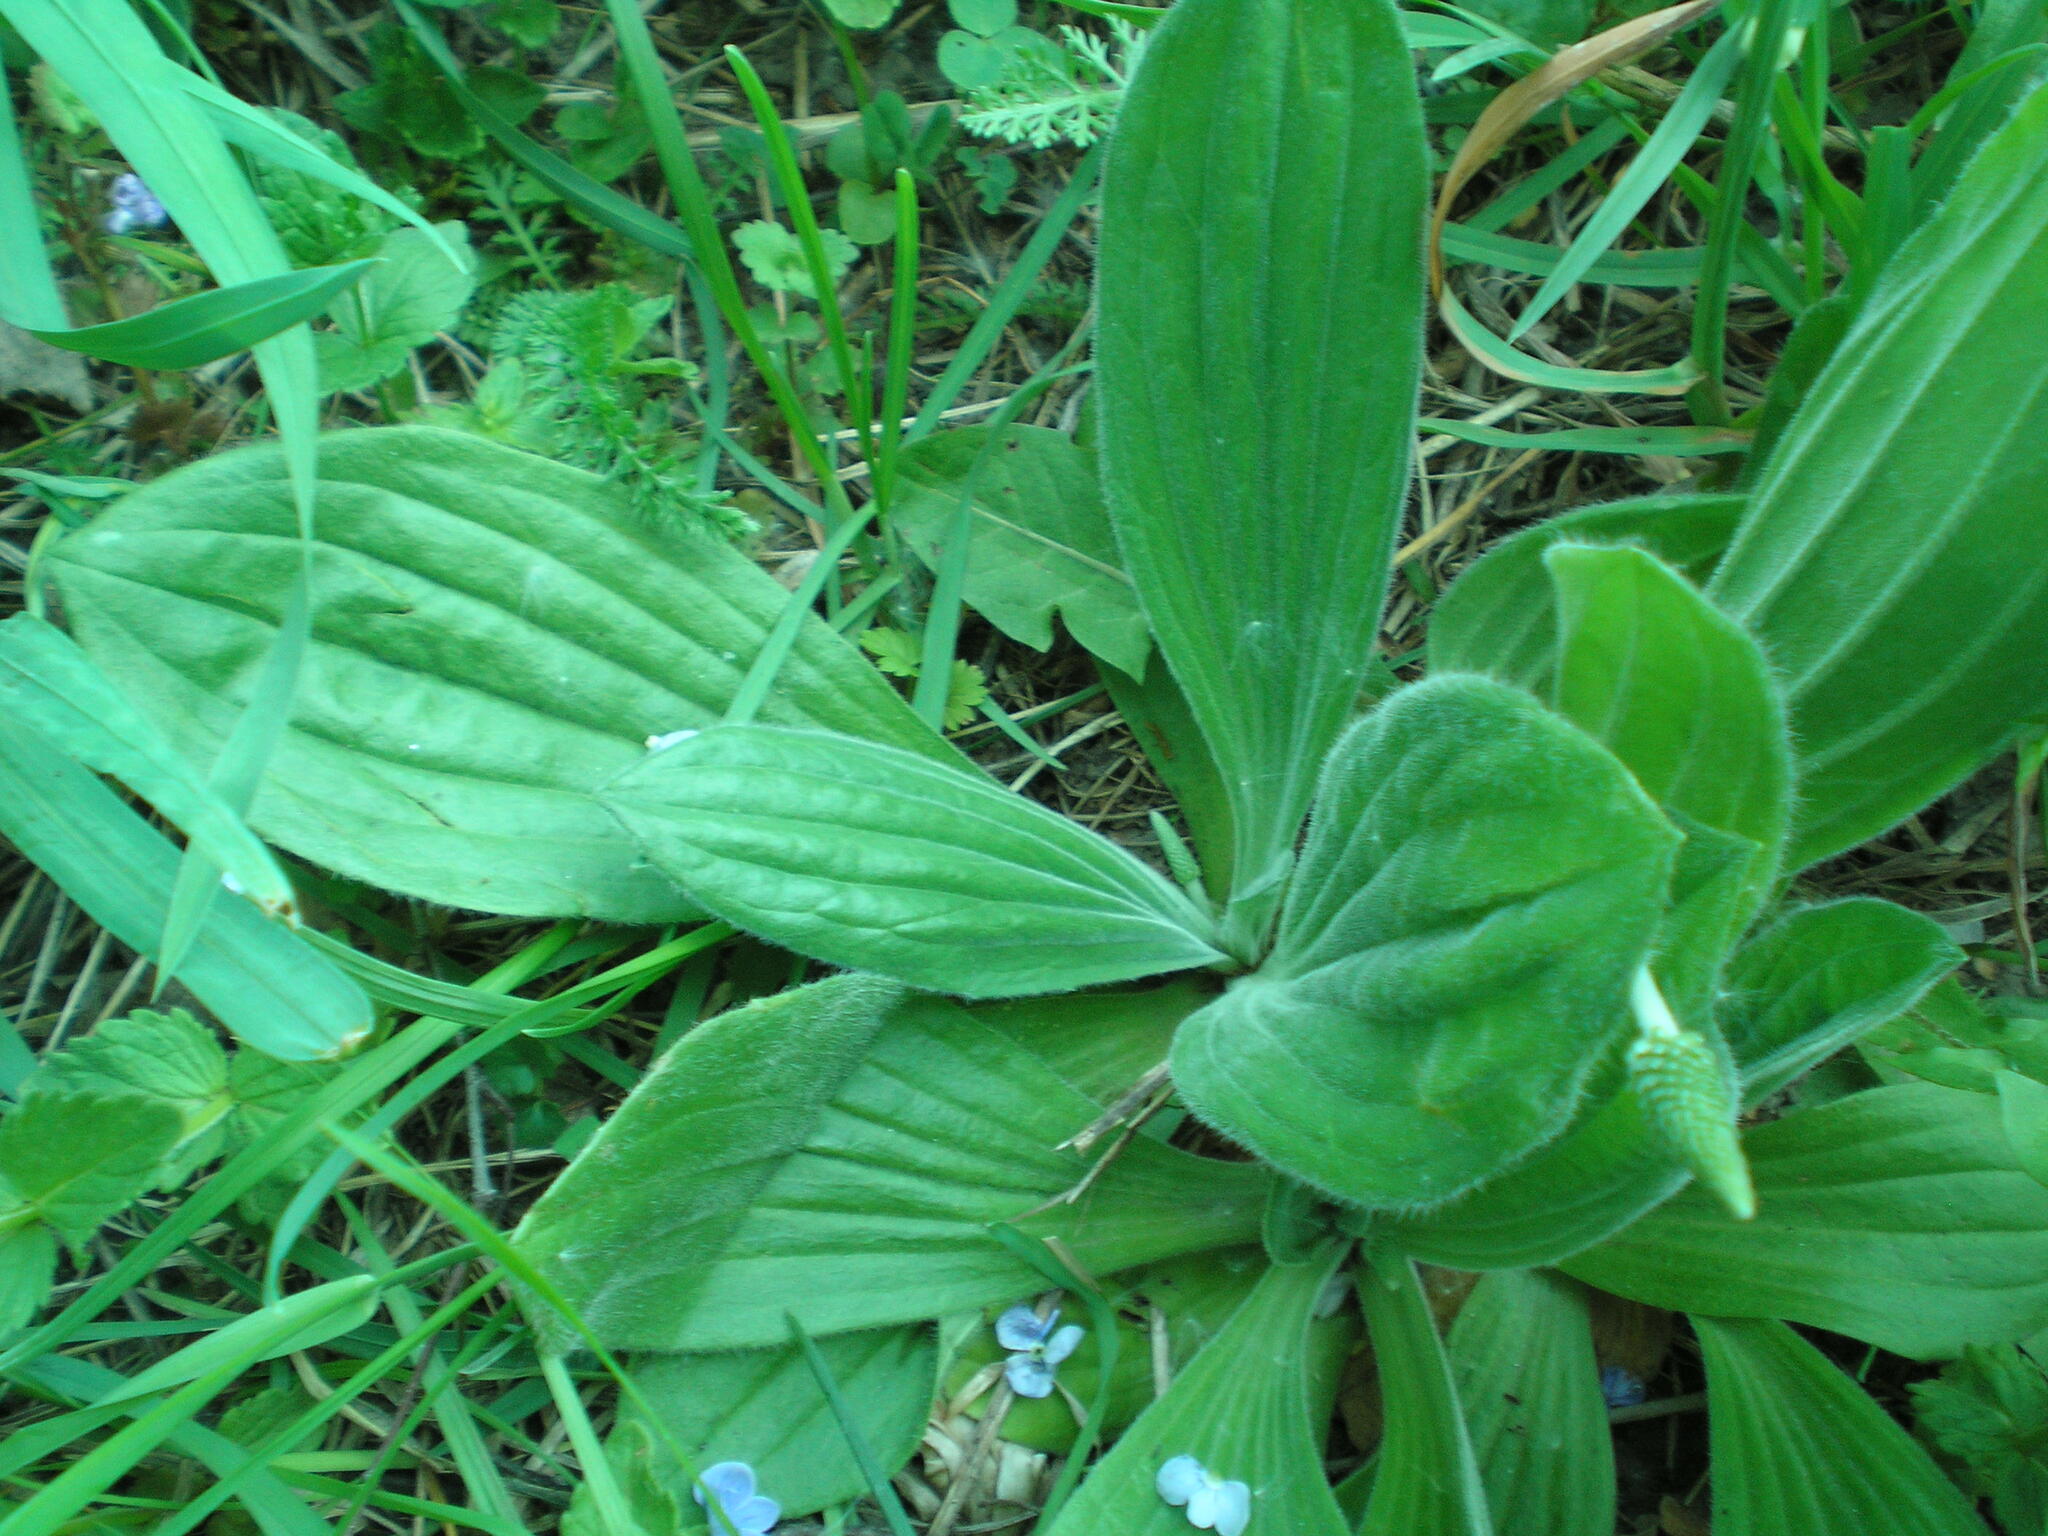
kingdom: Plantae
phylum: Tracheophyta
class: Magnoliopsida
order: Lamiales
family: Plantaginaceae
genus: Plantago
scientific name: Plantago media
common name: Hoary plantain
